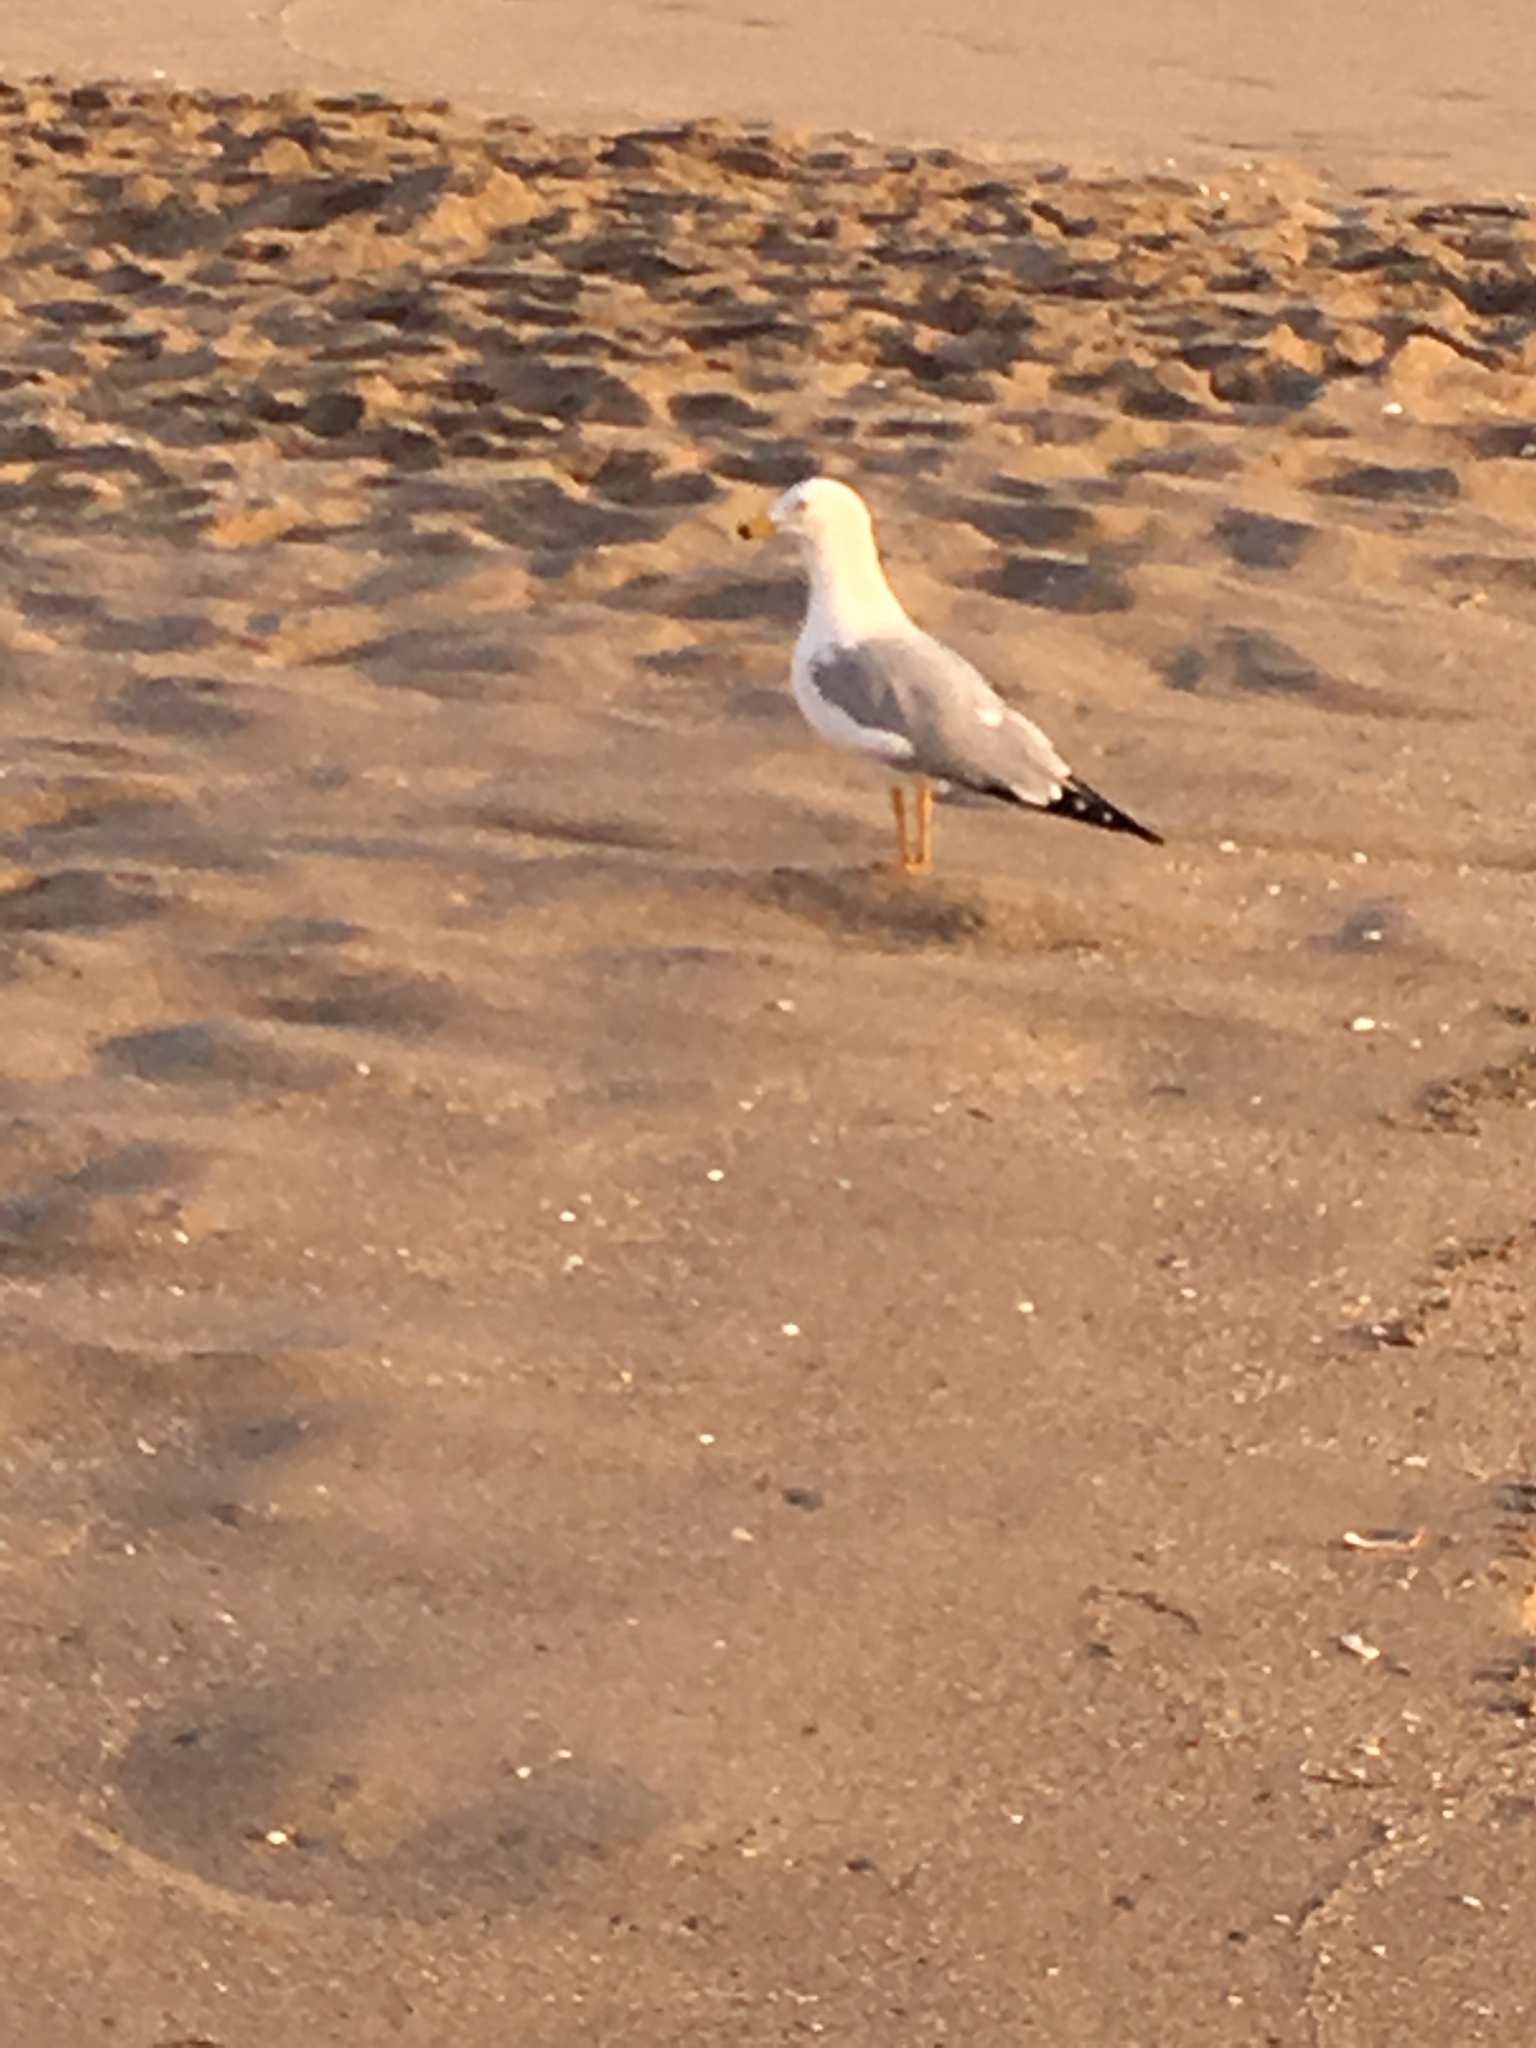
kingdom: Animalia
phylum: Chordata
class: Aves
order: Charadriiformes
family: Laridae
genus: Larus
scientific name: Larus delawarensis
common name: Ring-billed gull
